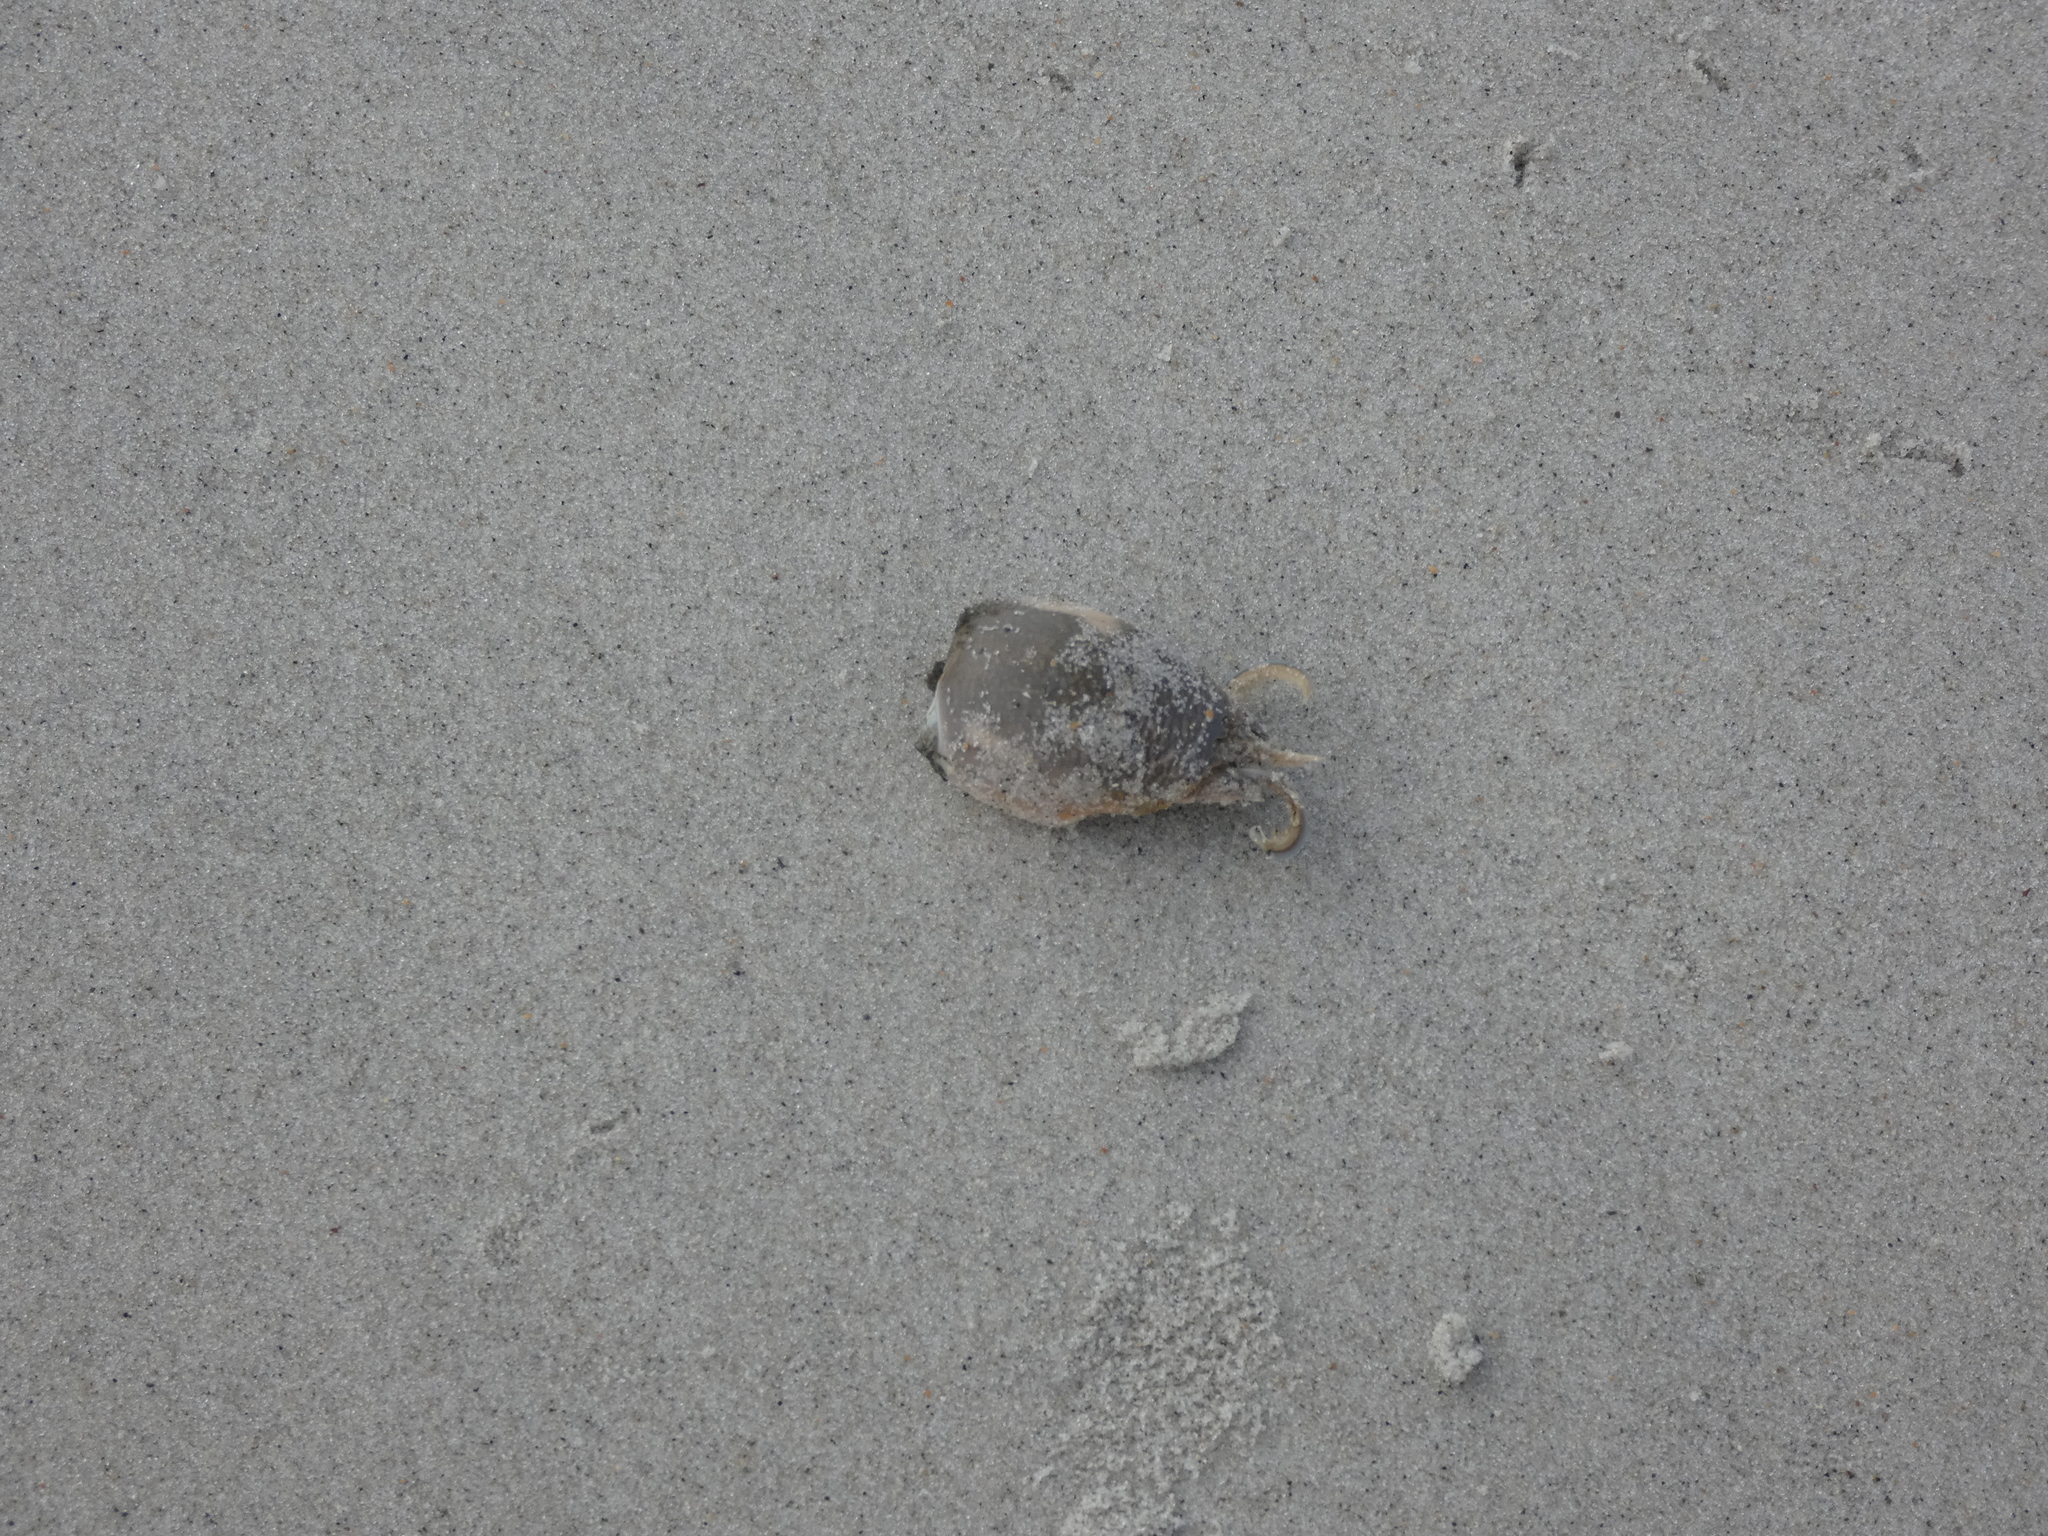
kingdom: Animalia
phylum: Arthropoda
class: Malacostraca
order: Decapoda
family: Hippidae
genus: Emerita
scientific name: Emerita talpoida
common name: Atlantic sand crab
